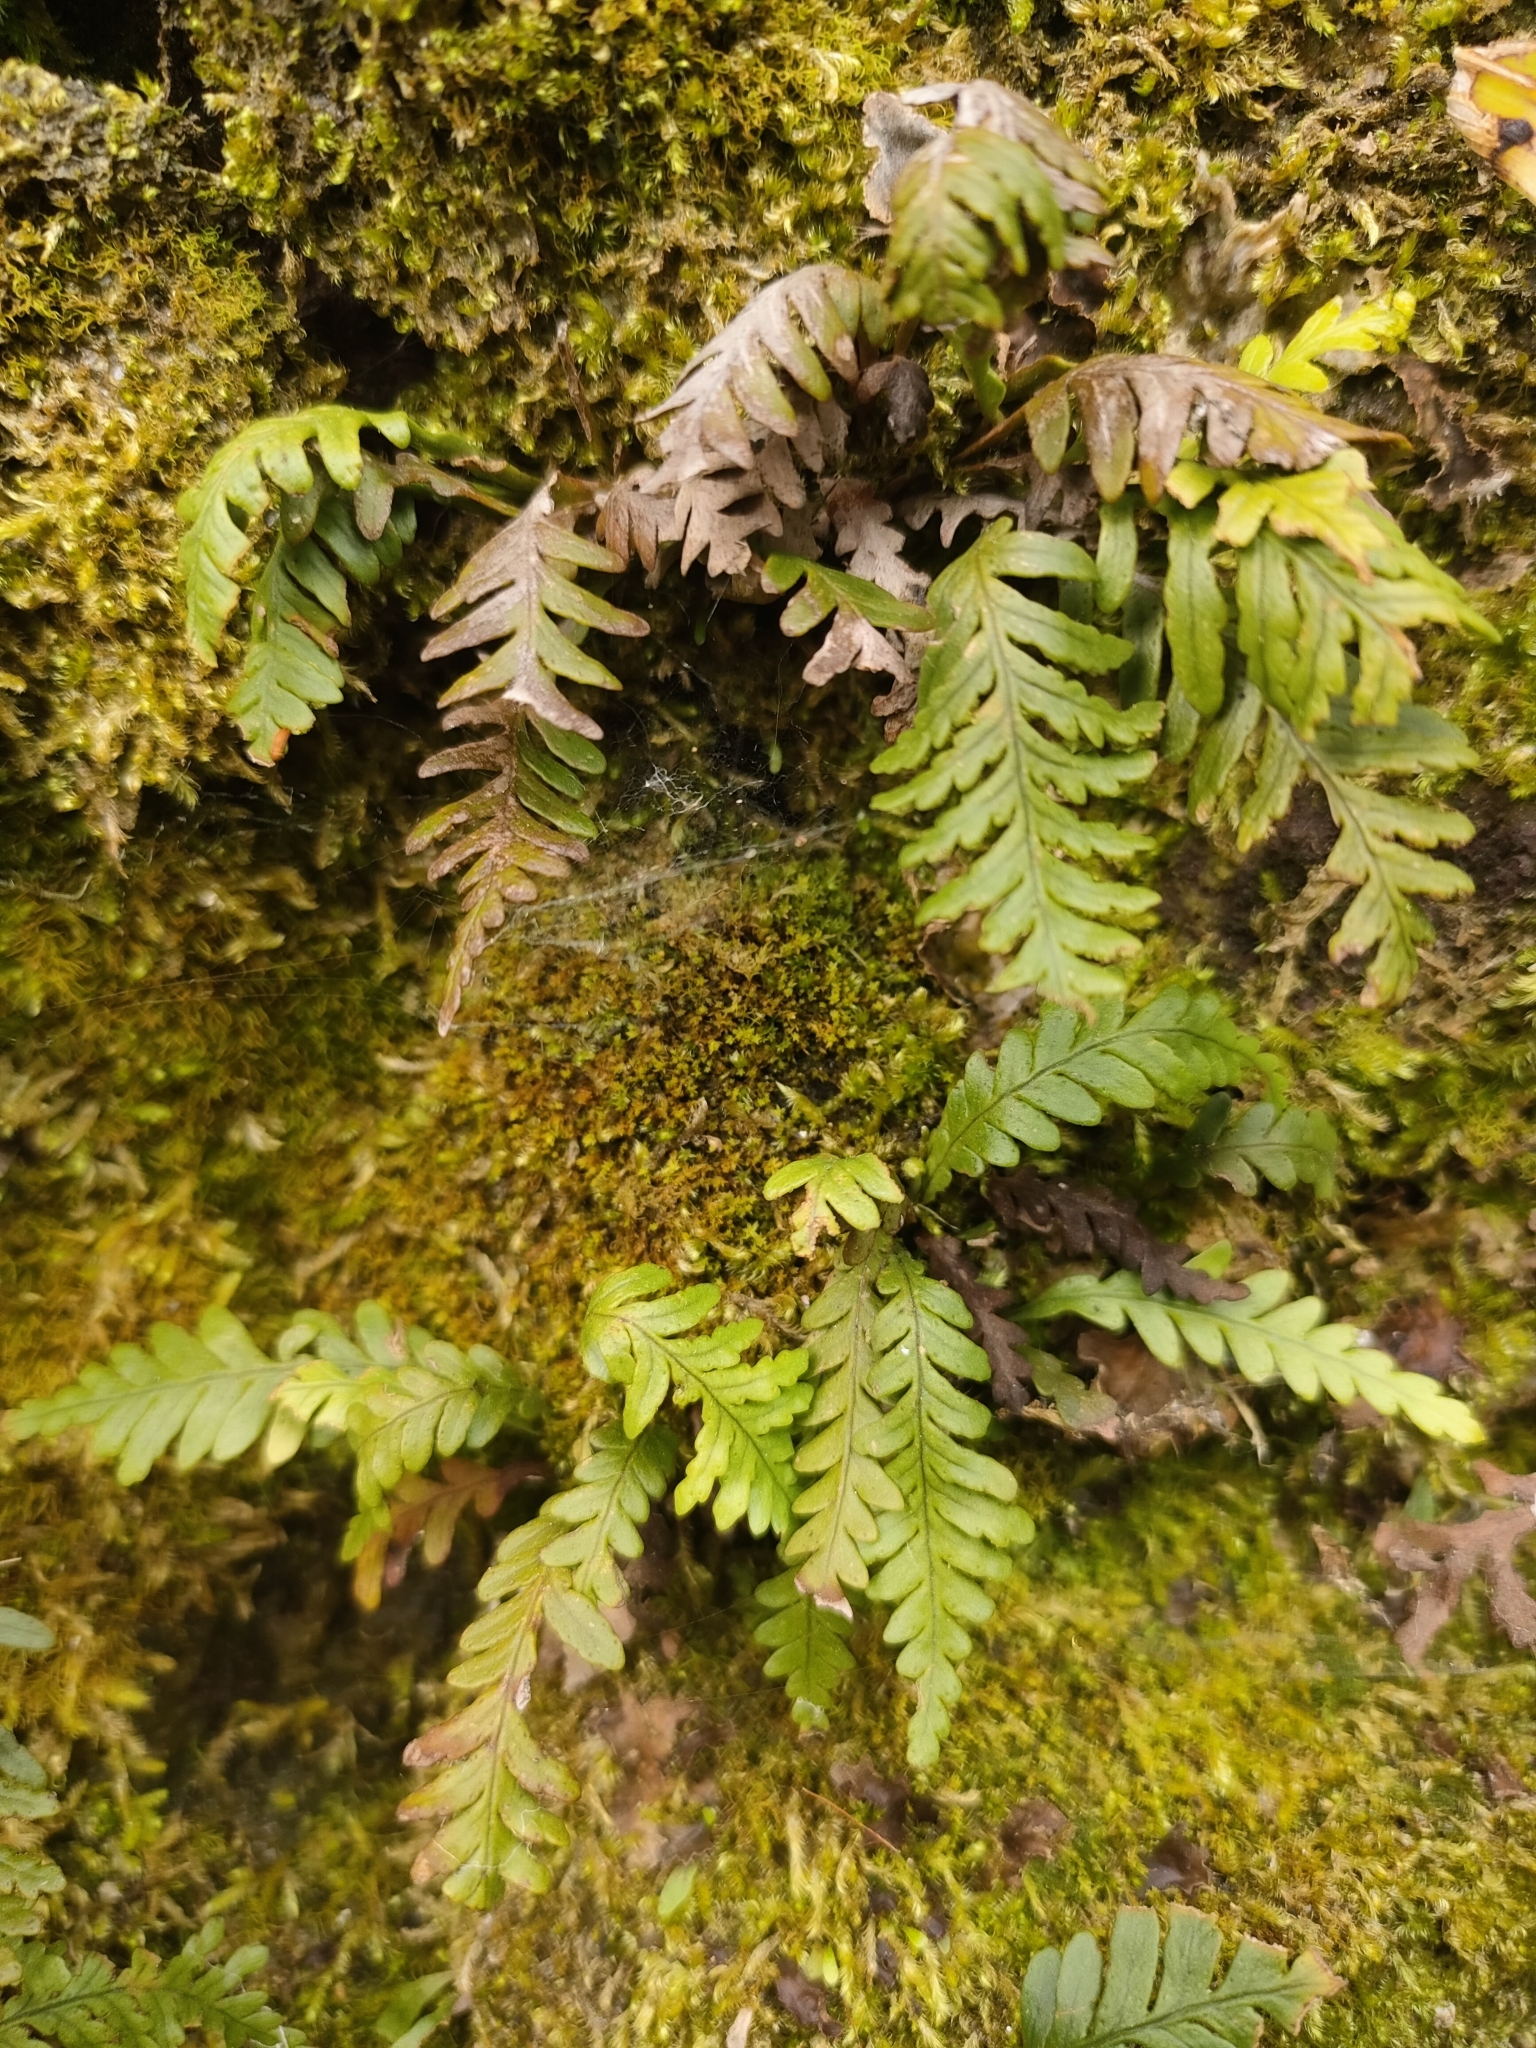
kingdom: Plantae
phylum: Tracheophyta
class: Polypodiopsida
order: Polypodiales
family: Polypodiaceae
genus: Notogrammitis
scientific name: Notogrammitis heterophylla
